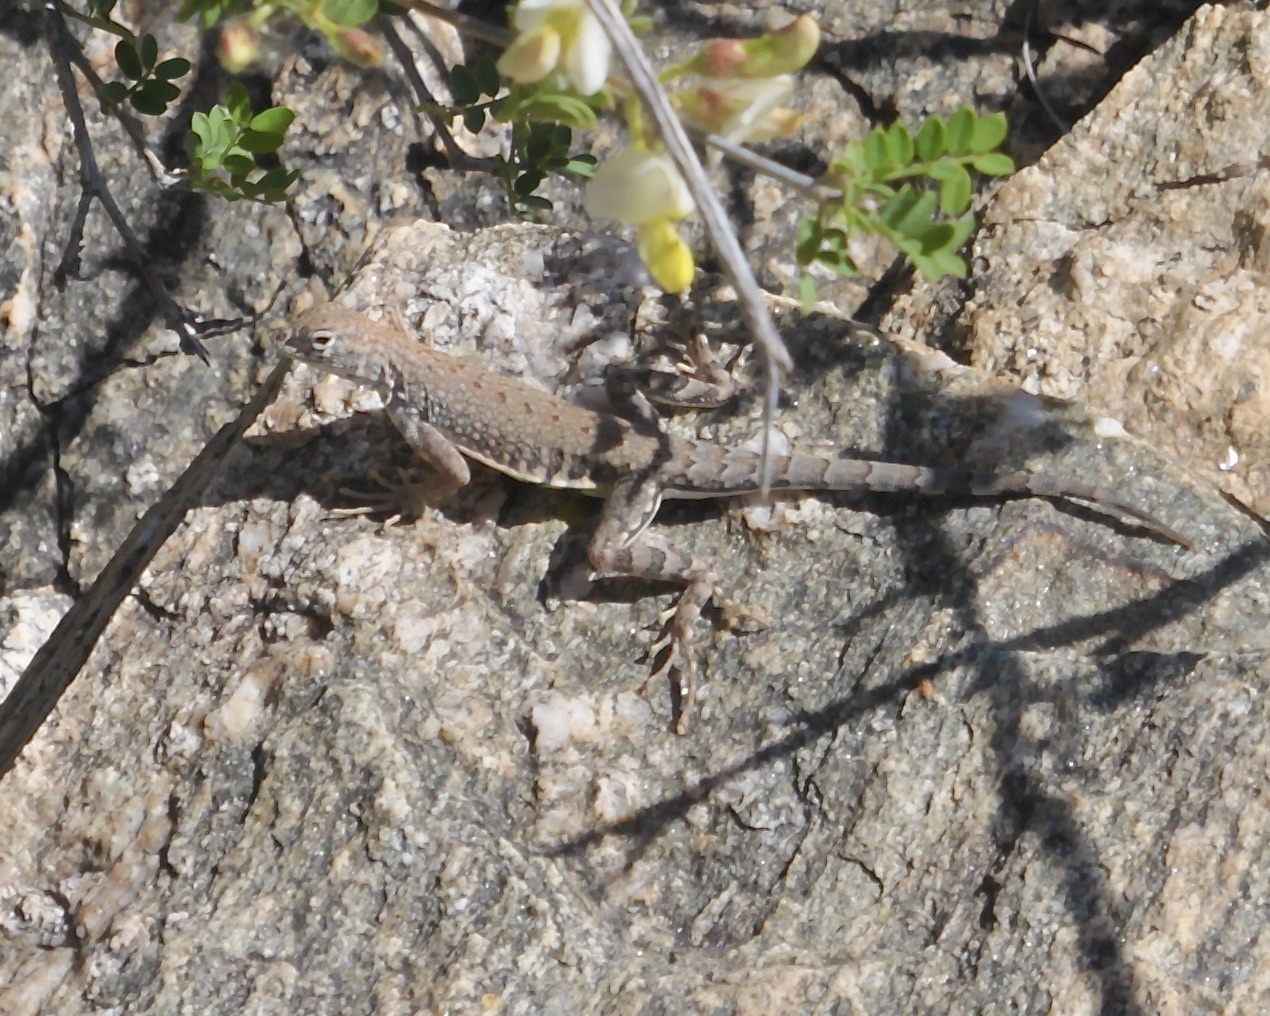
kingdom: Animalia
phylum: Chordata
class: Squamata
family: Phrynosomatidae
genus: Cophosaurus
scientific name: Cophosaurus texanus
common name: Greater earless lizard
